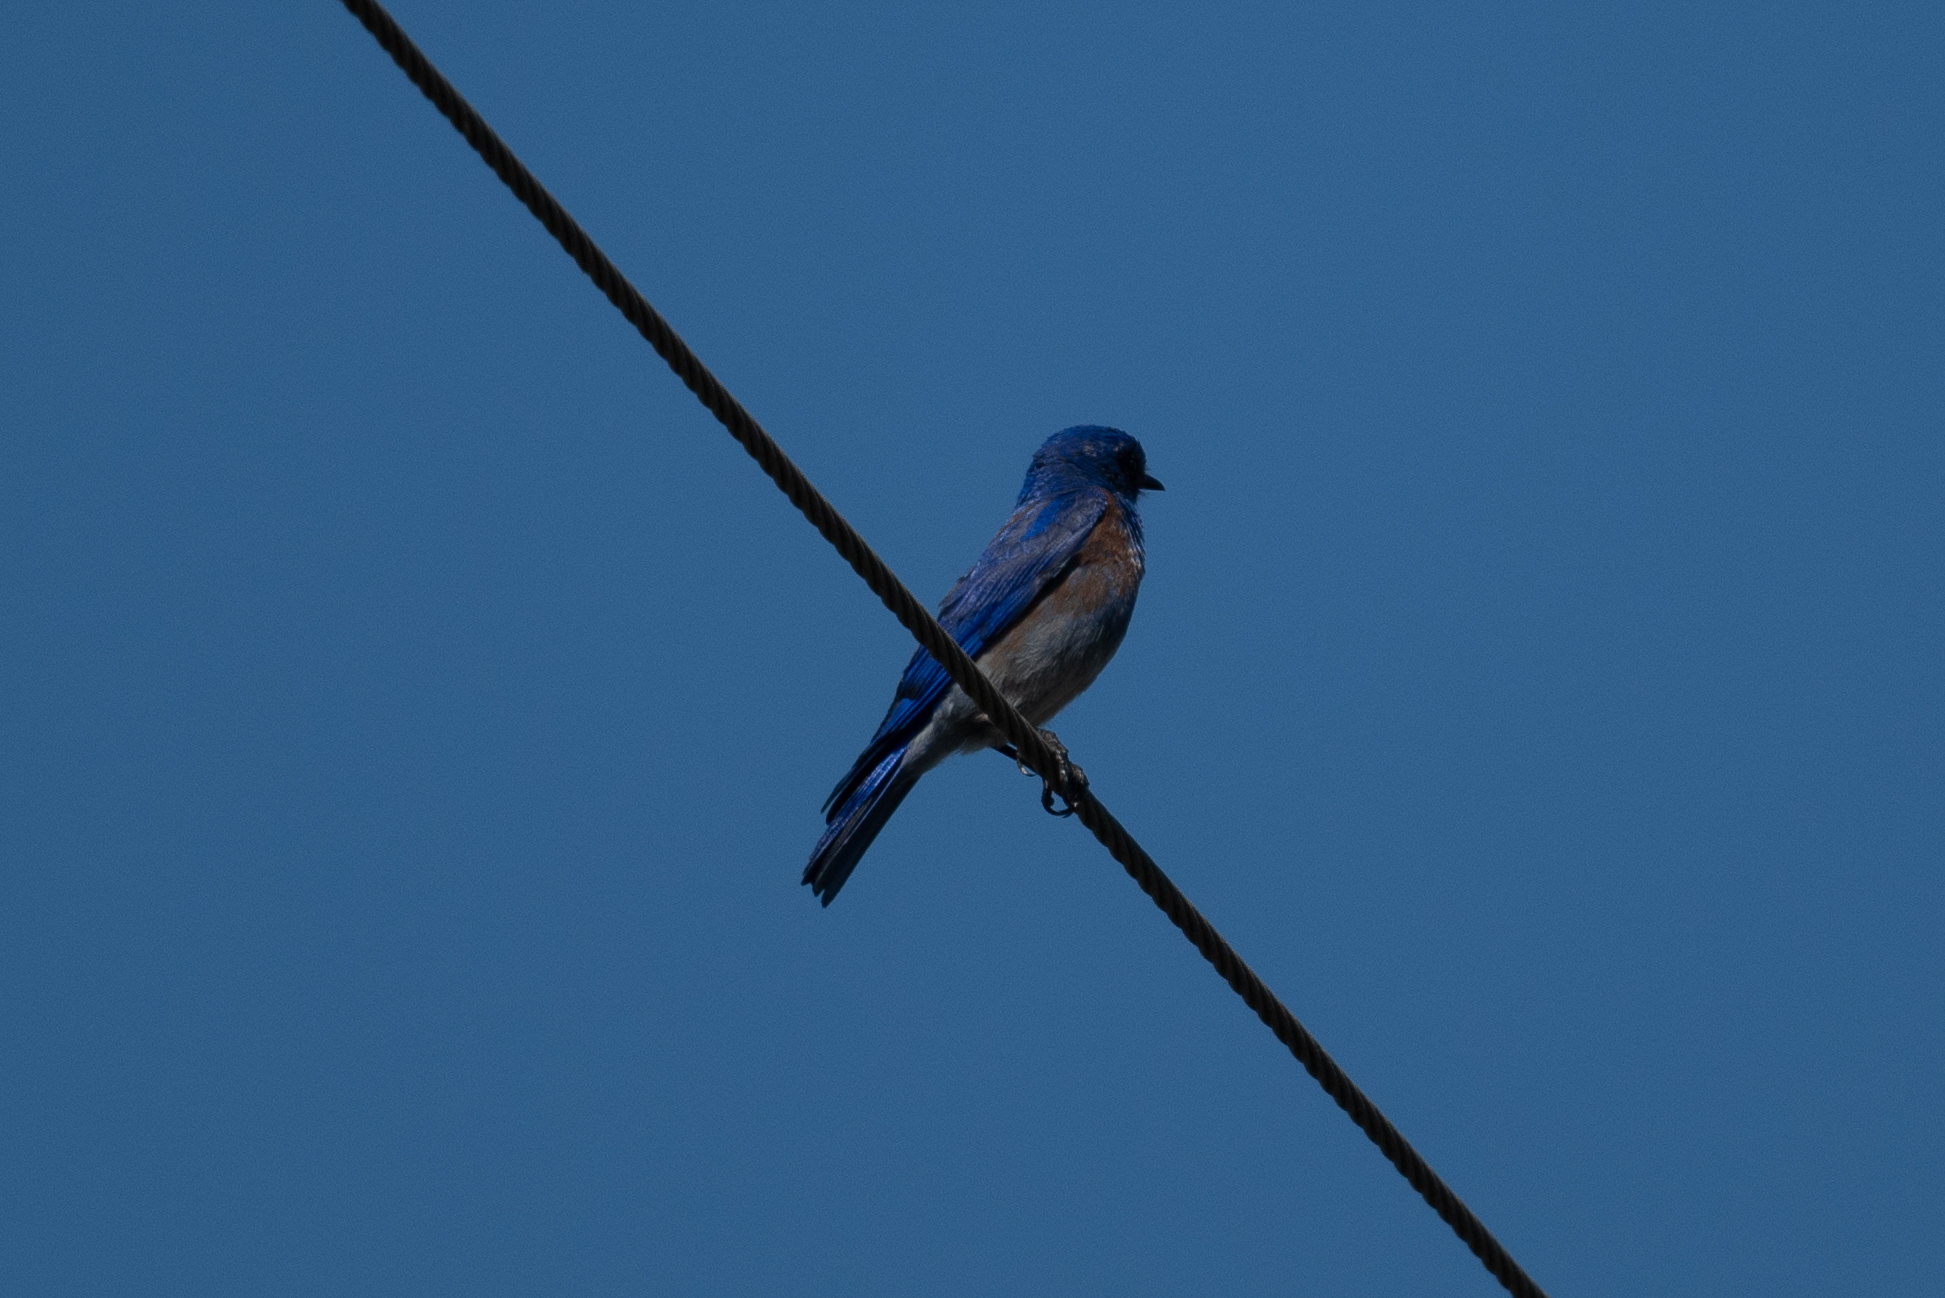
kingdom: Animalia
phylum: Chordata
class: Aves
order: Passeriformes
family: Turdidae
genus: Sialia
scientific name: Sialia mexicana
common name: Western bluebird
